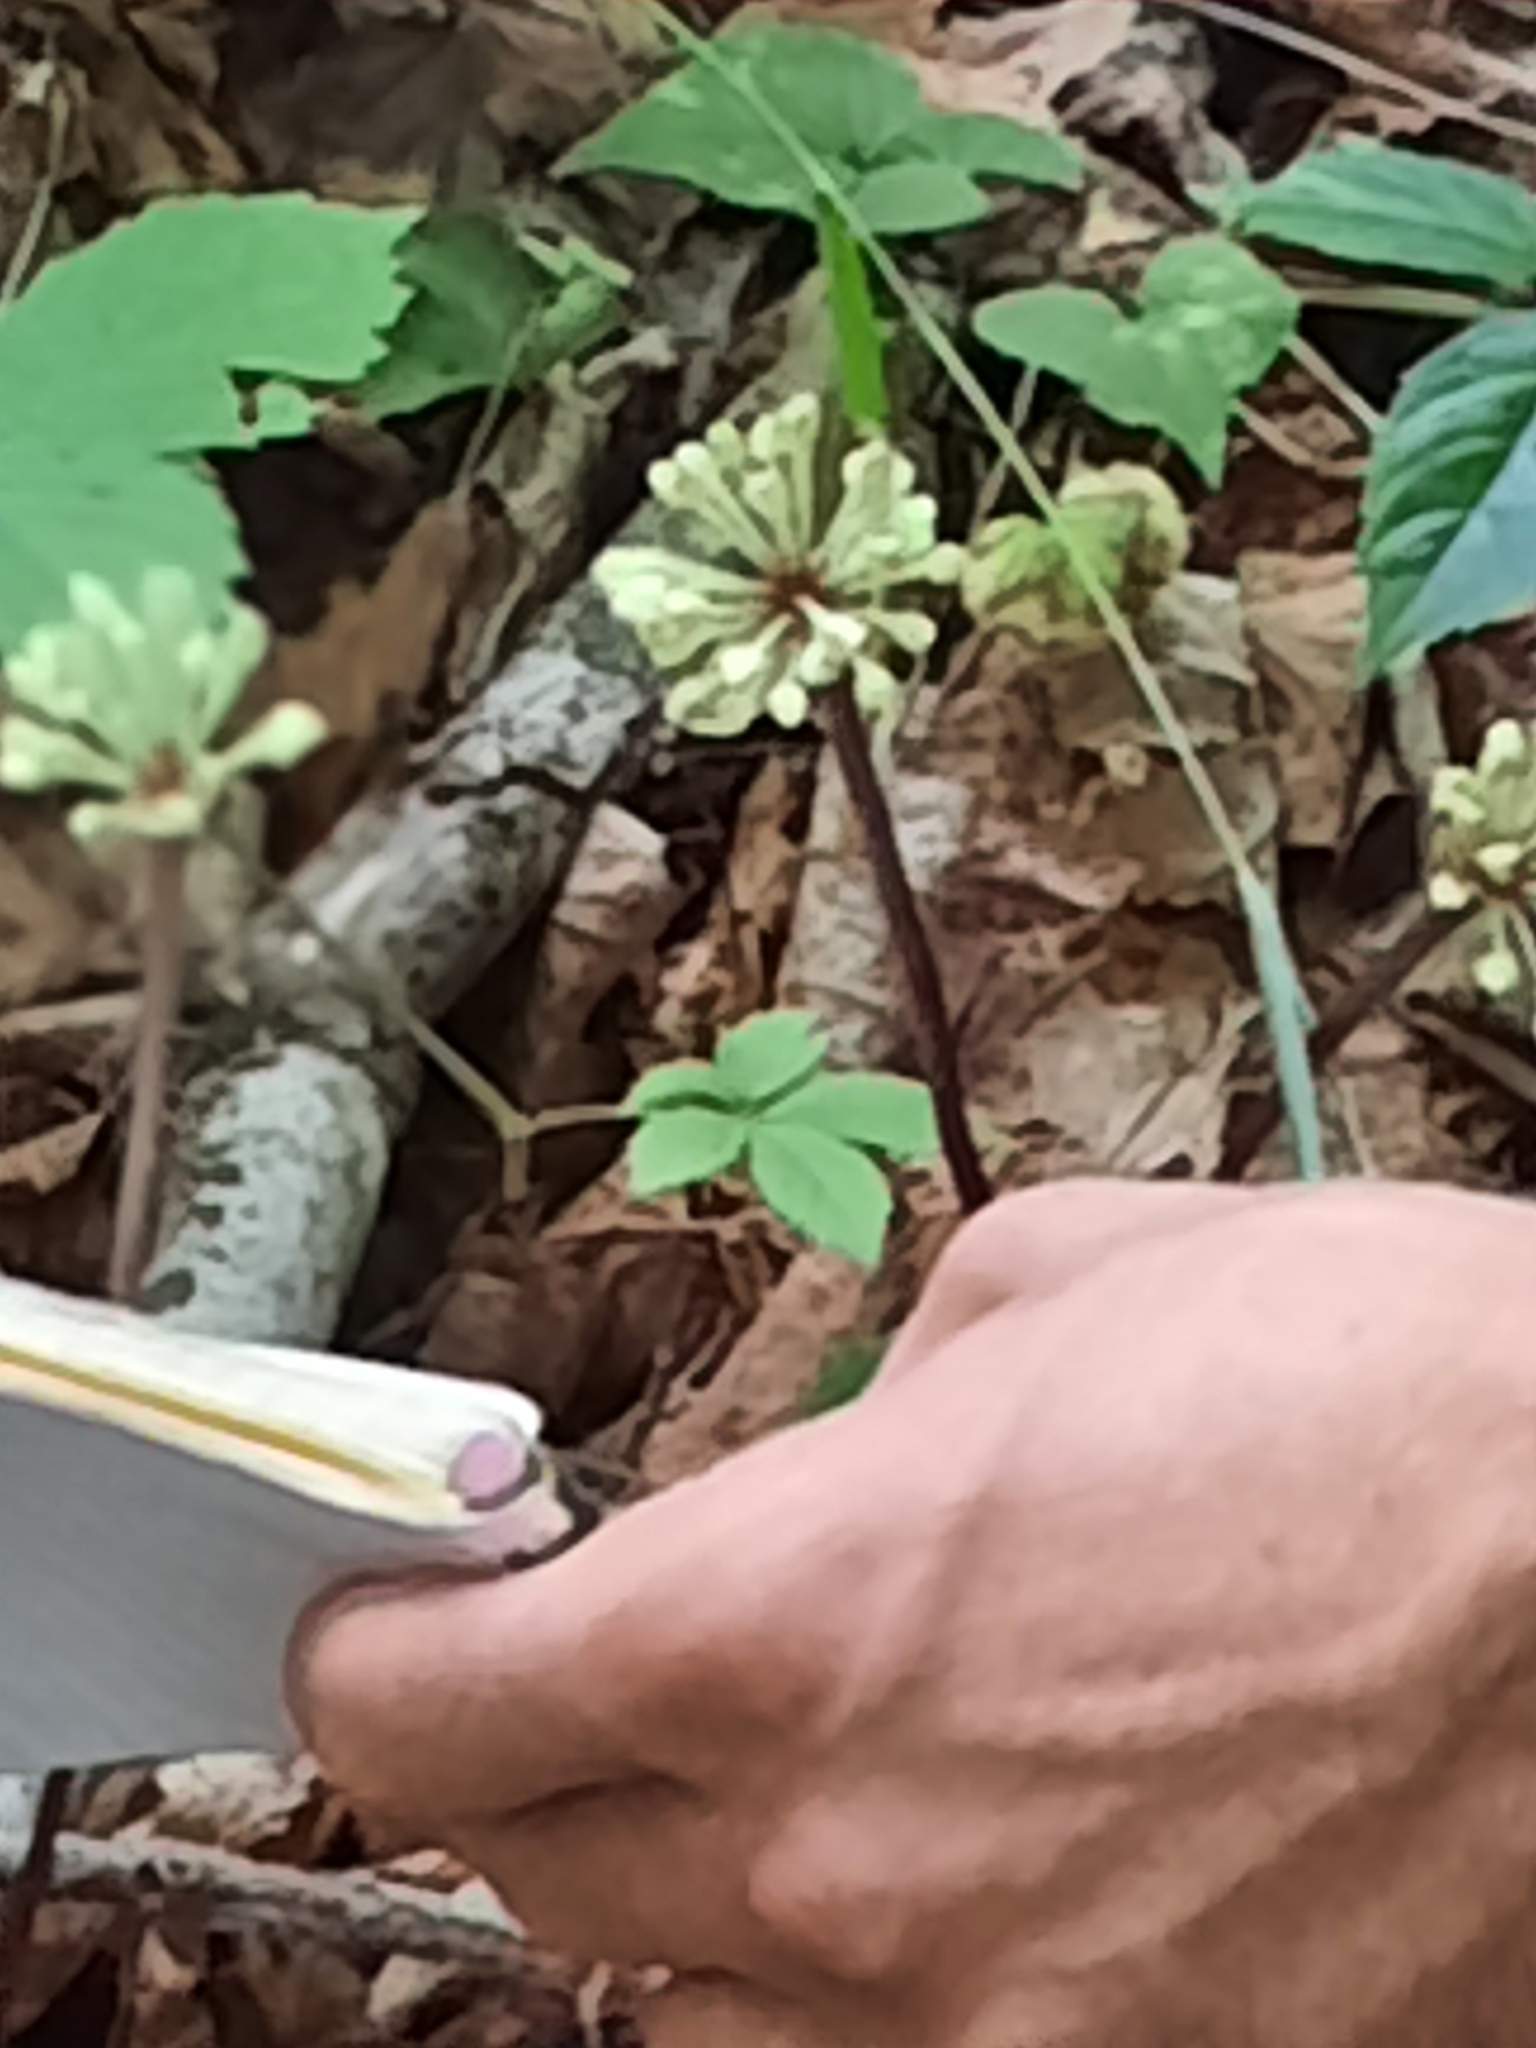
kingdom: Plantae
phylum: Tracheophyta
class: Liliopsida
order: Asparagales
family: Amaryllidaceae
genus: Allium
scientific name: Allium tricoccum
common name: Ramp
